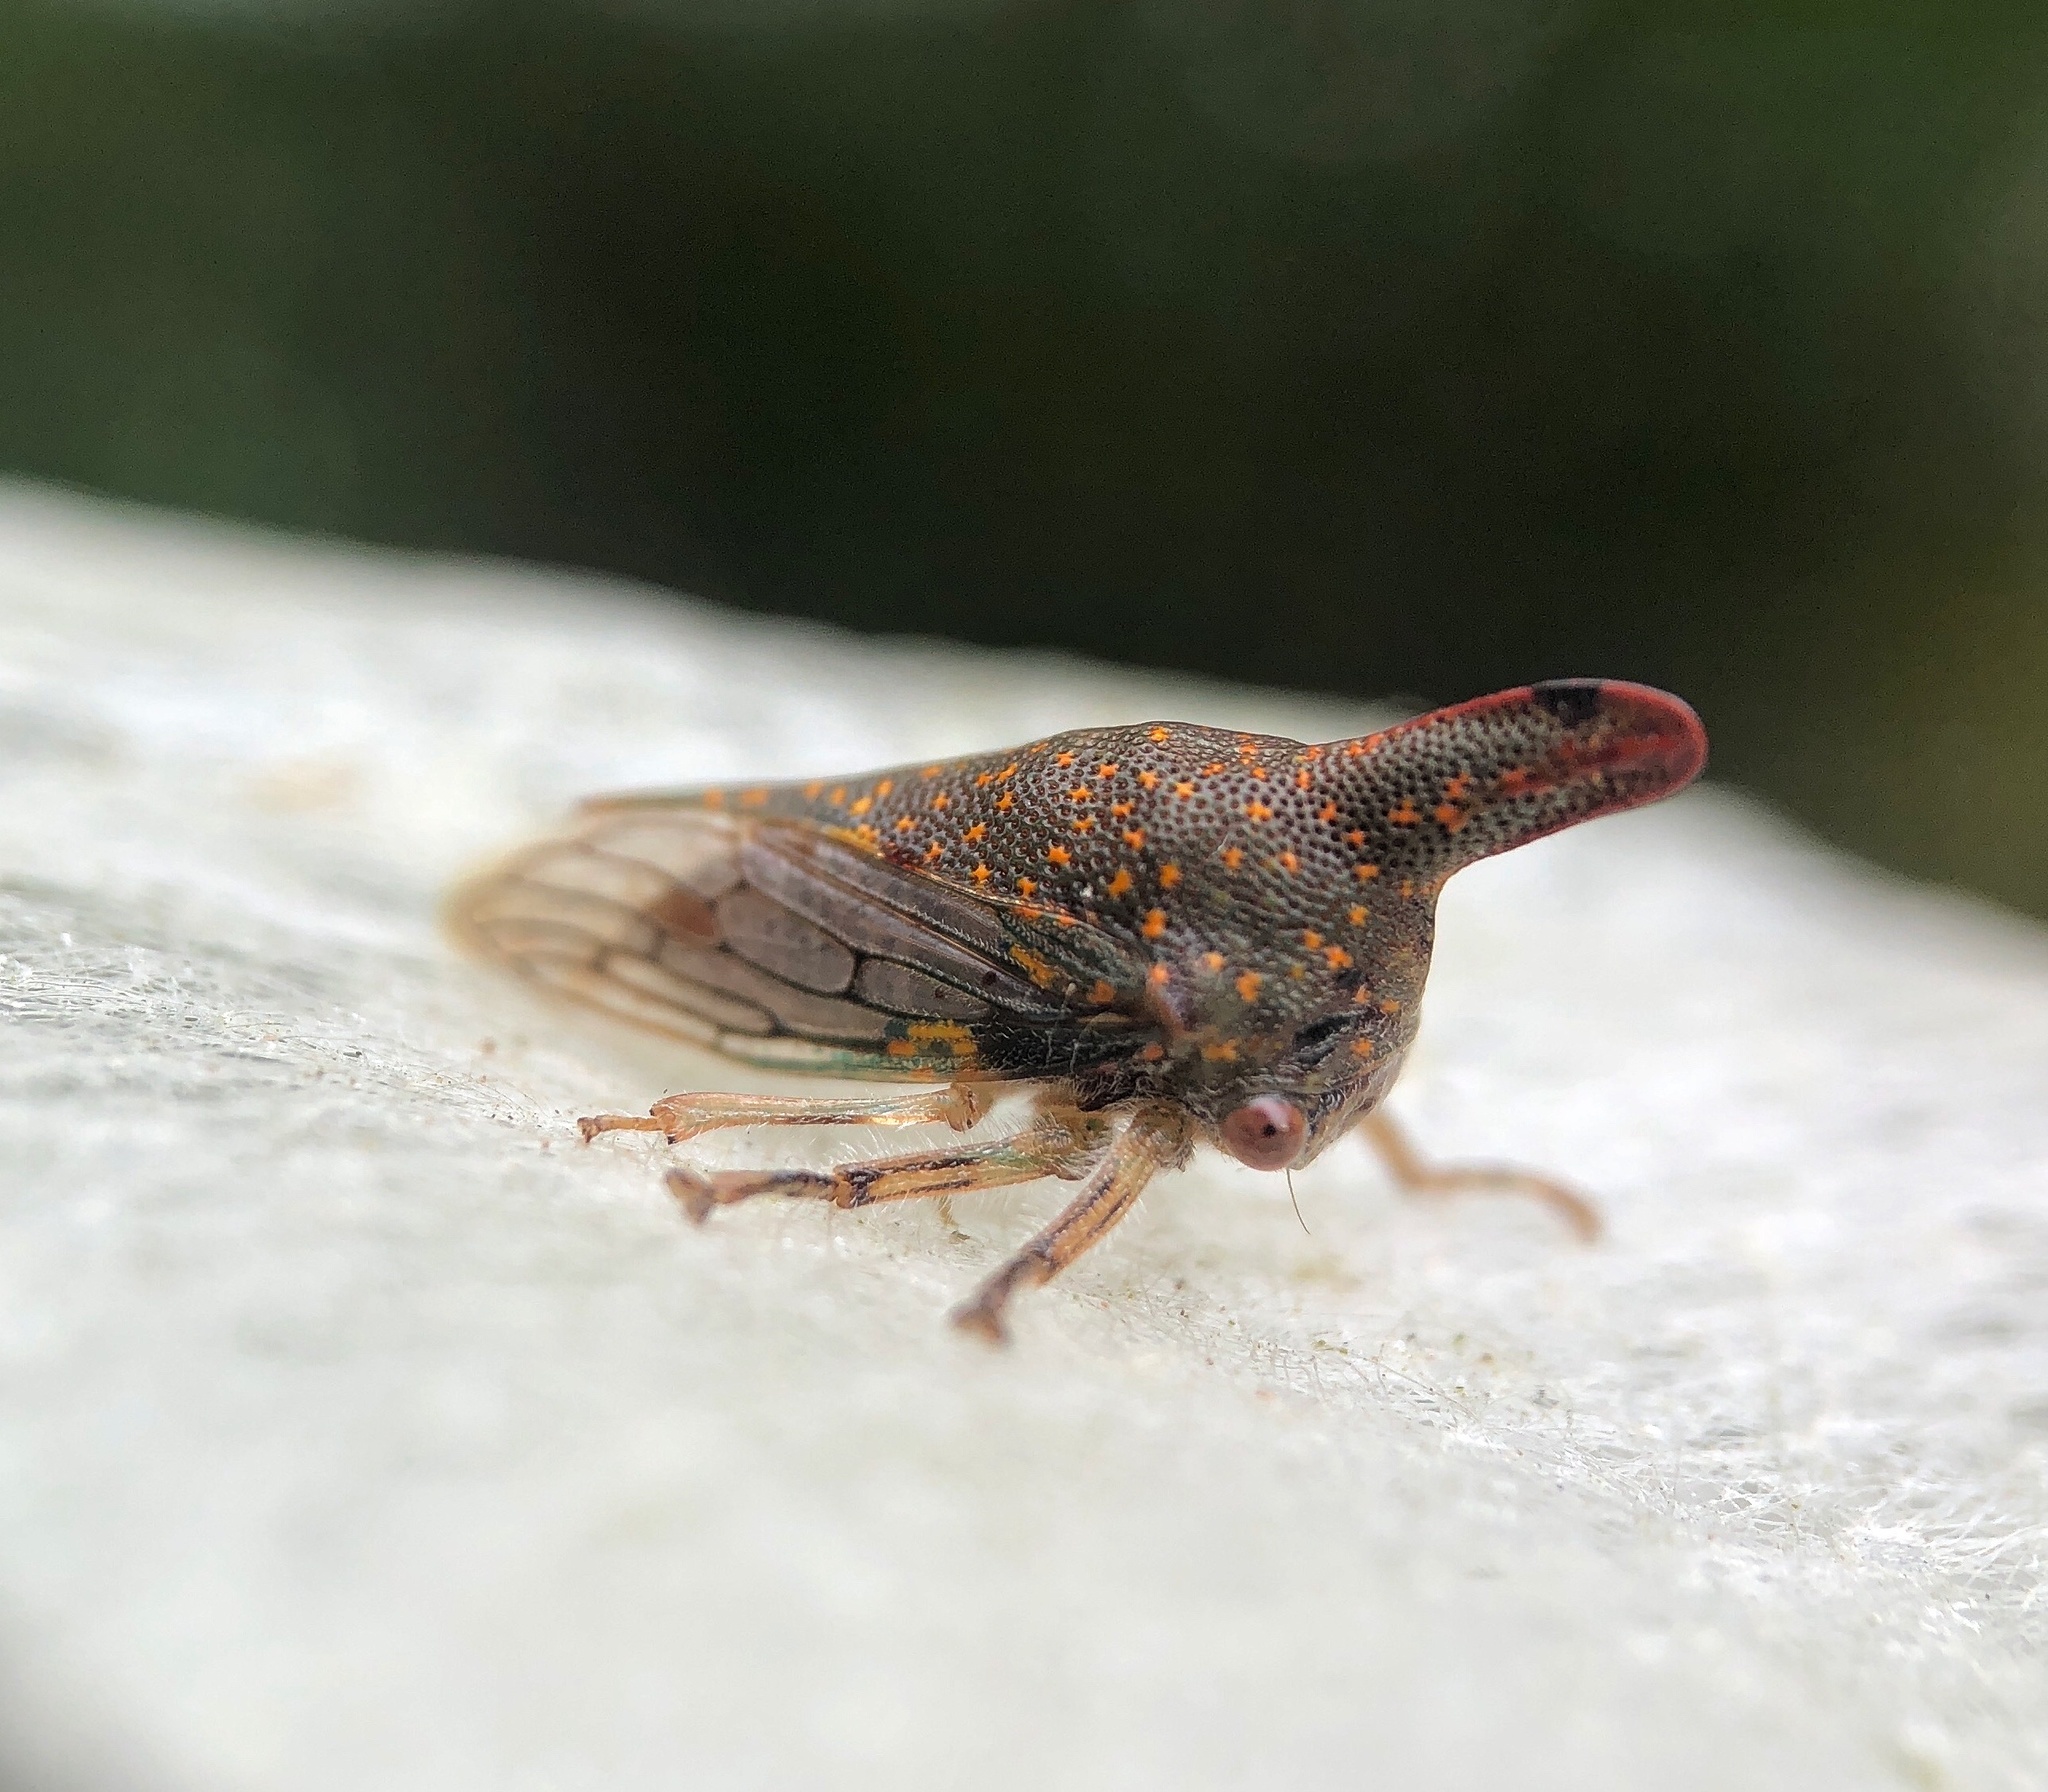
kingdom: Animalia
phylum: Arthropoda
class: Insecta
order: Hemiptera
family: Membracidae
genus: Platycotis
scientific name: Platycotis vittatus
